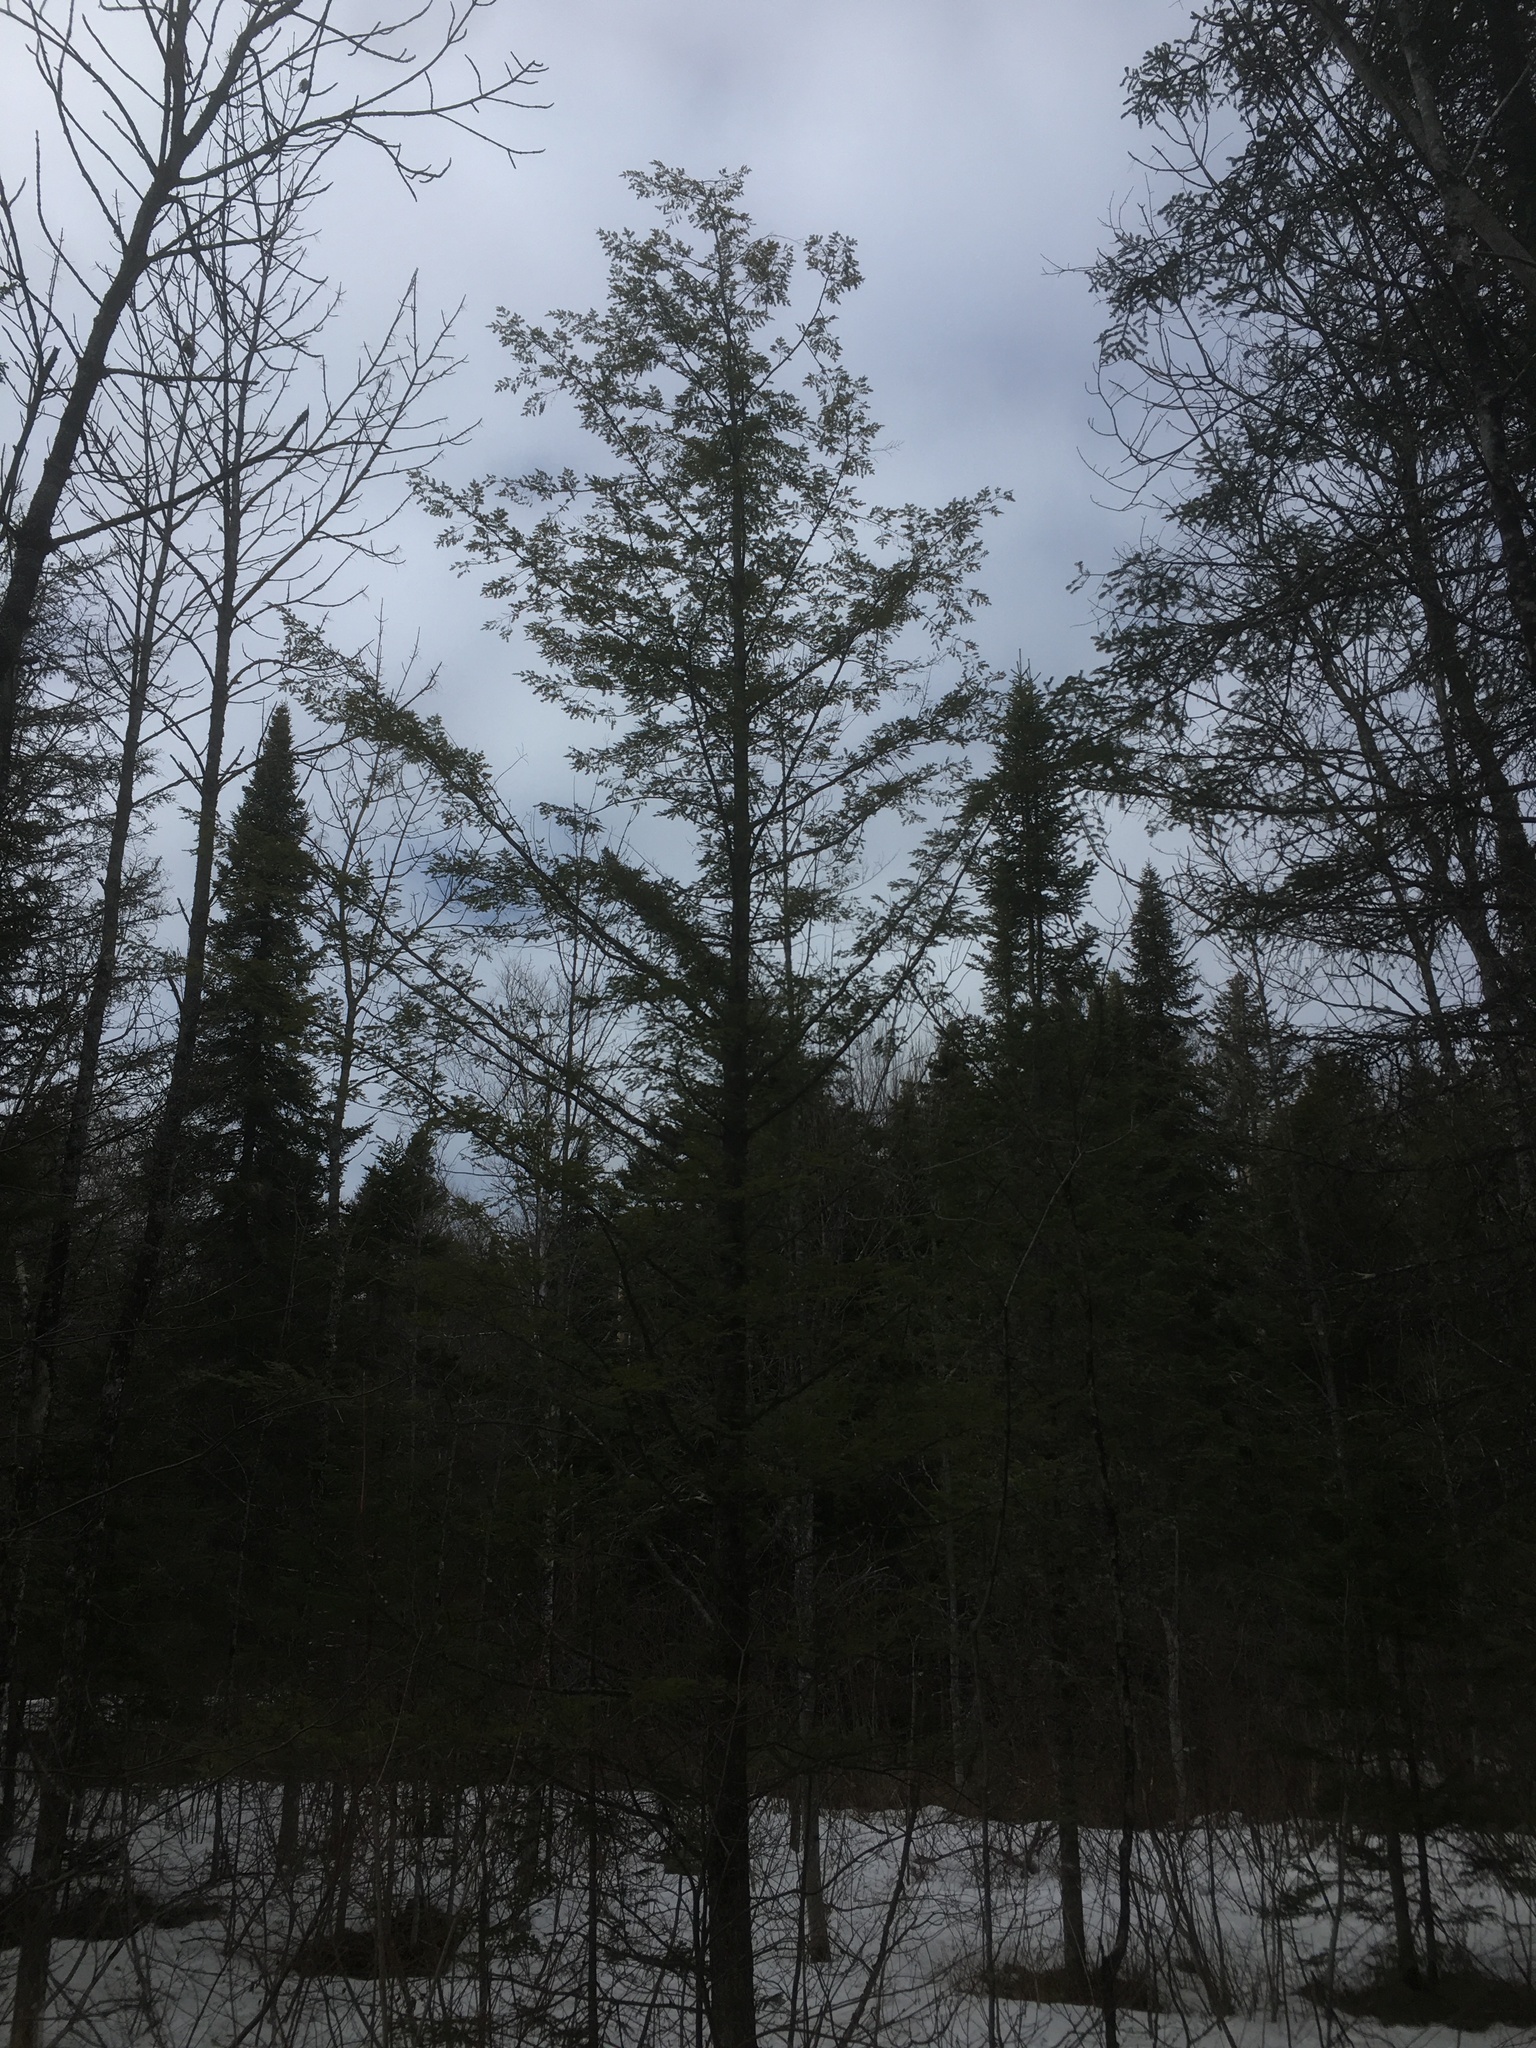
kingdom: Plantae
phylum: Tracheophyta
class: Pinopsida
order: Pinales
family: Pinaceae
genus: Tsuga
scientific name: Tsuga canadensis
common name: Eastern hemlock
